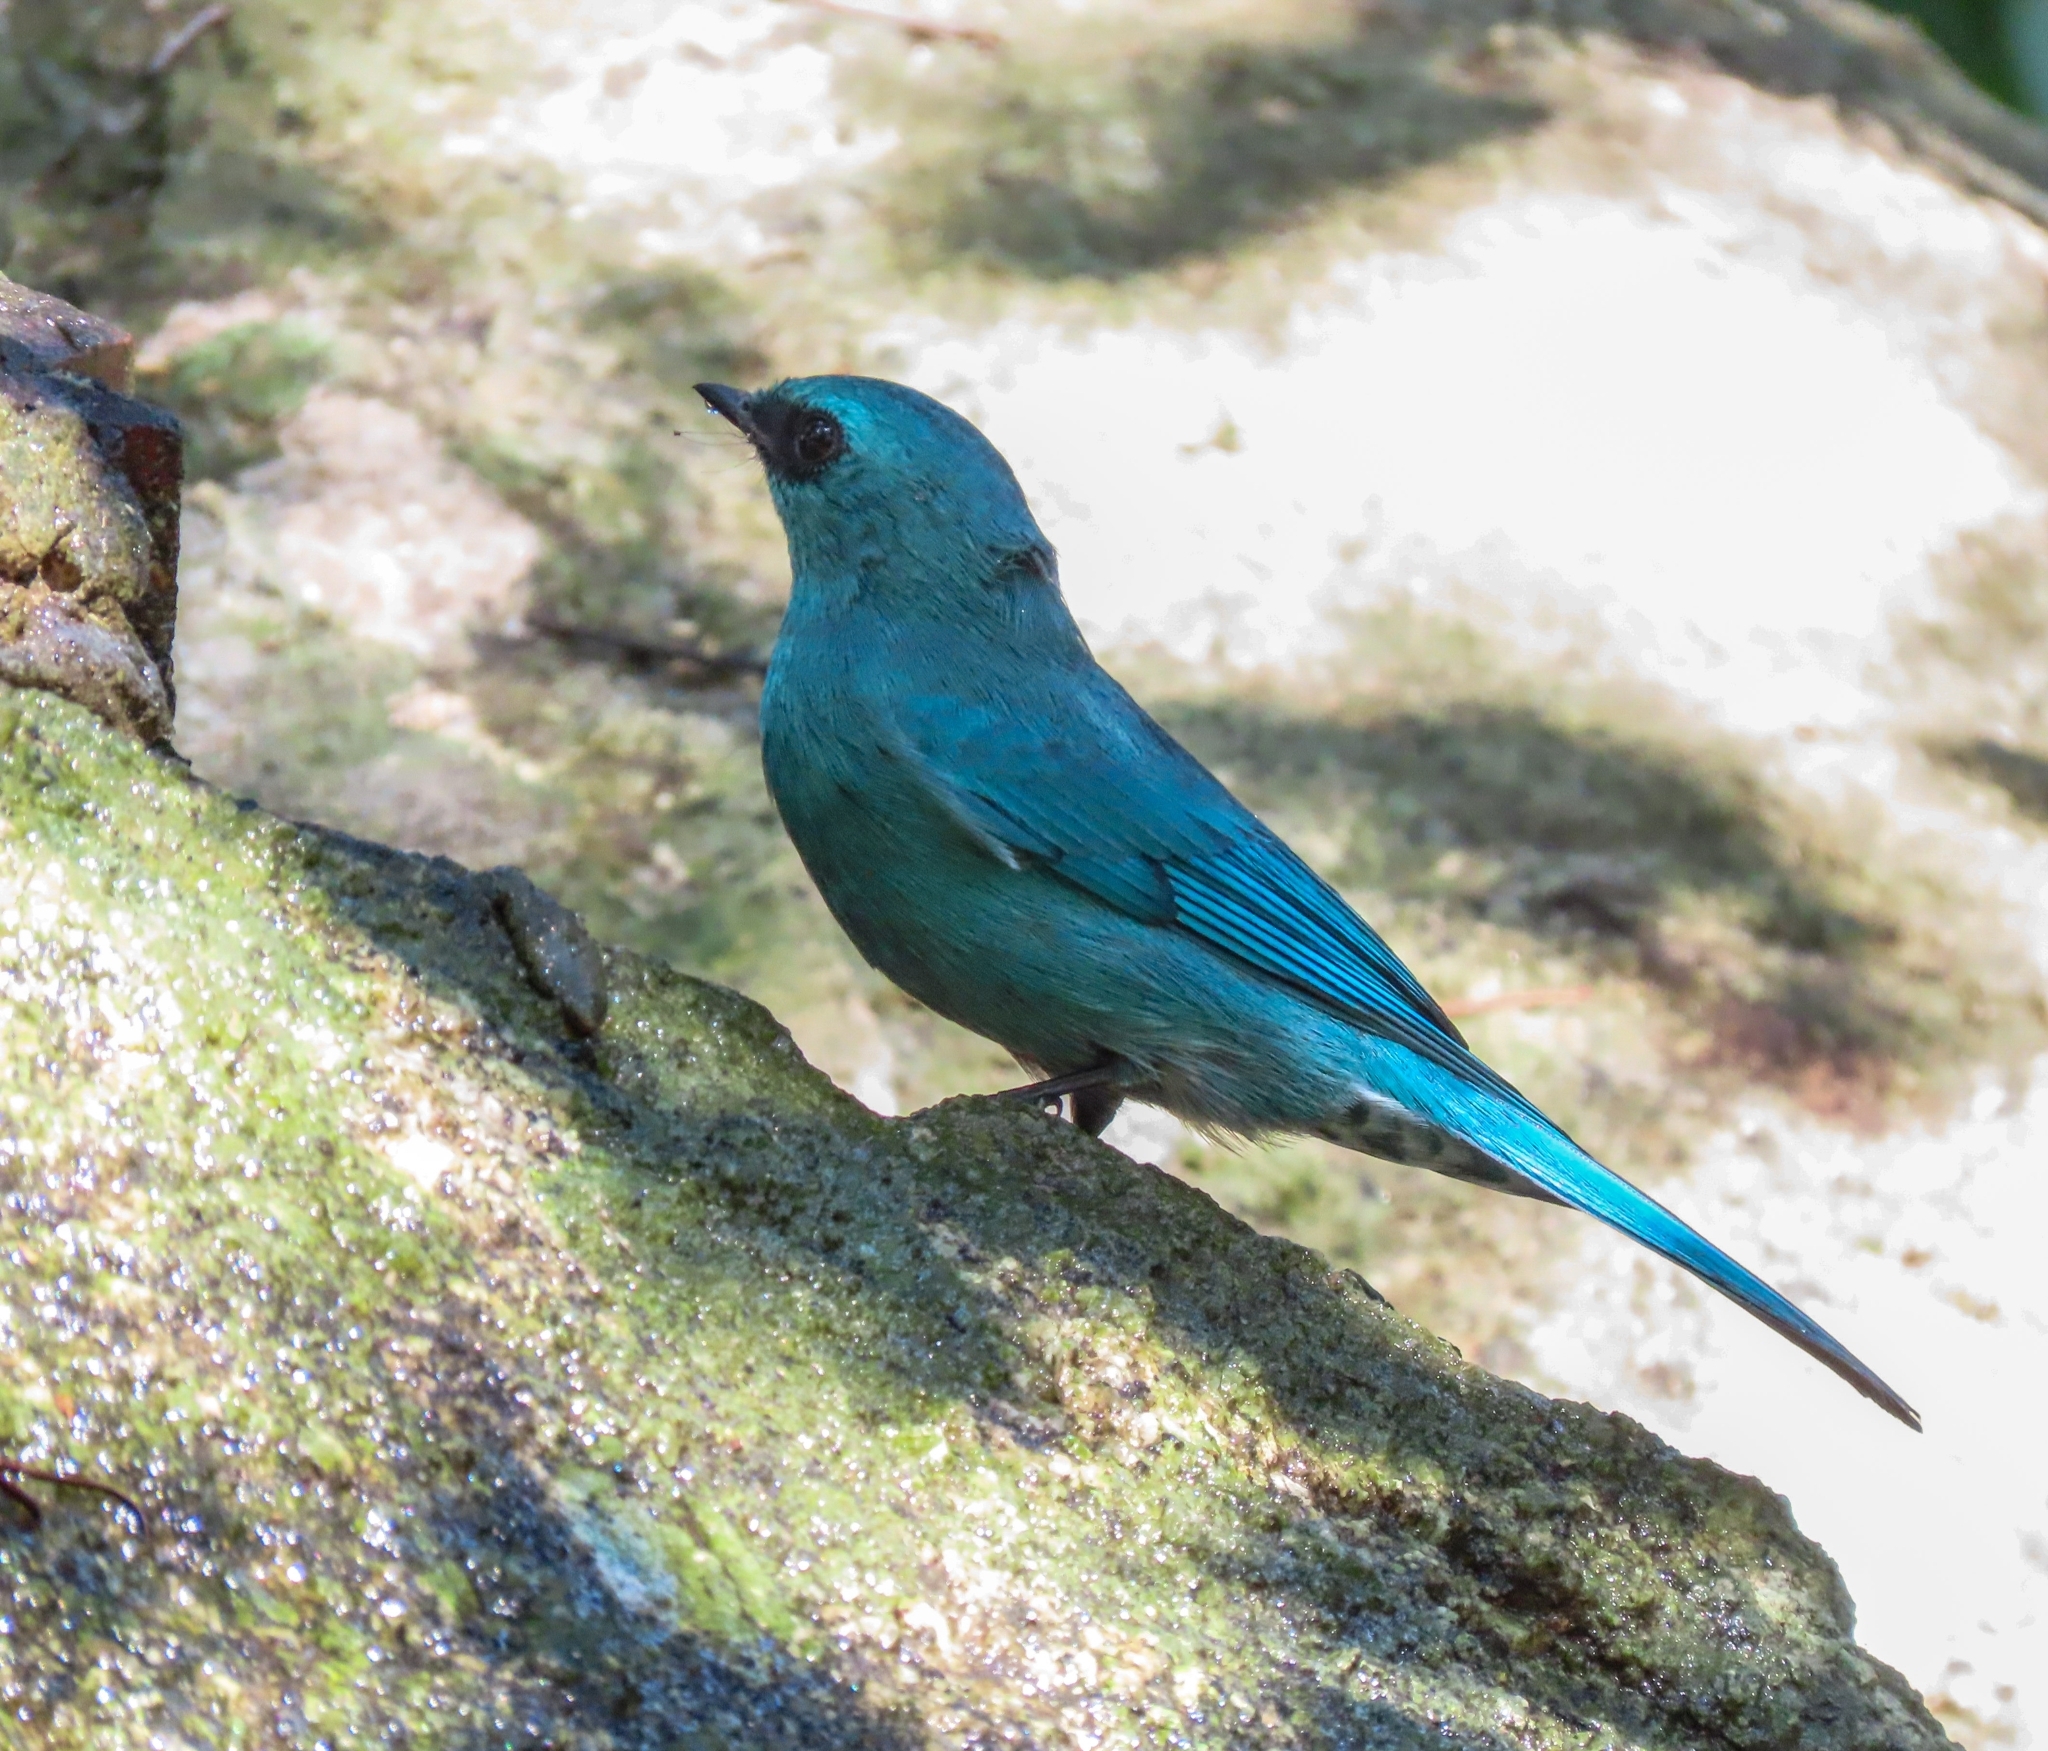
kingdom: Animalia
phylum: Chordata
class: Aves
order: Passeriformes
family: Muscicapidae
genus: Eumyias
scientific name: Eumyias thalassinus
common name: Verditer flycatcher
